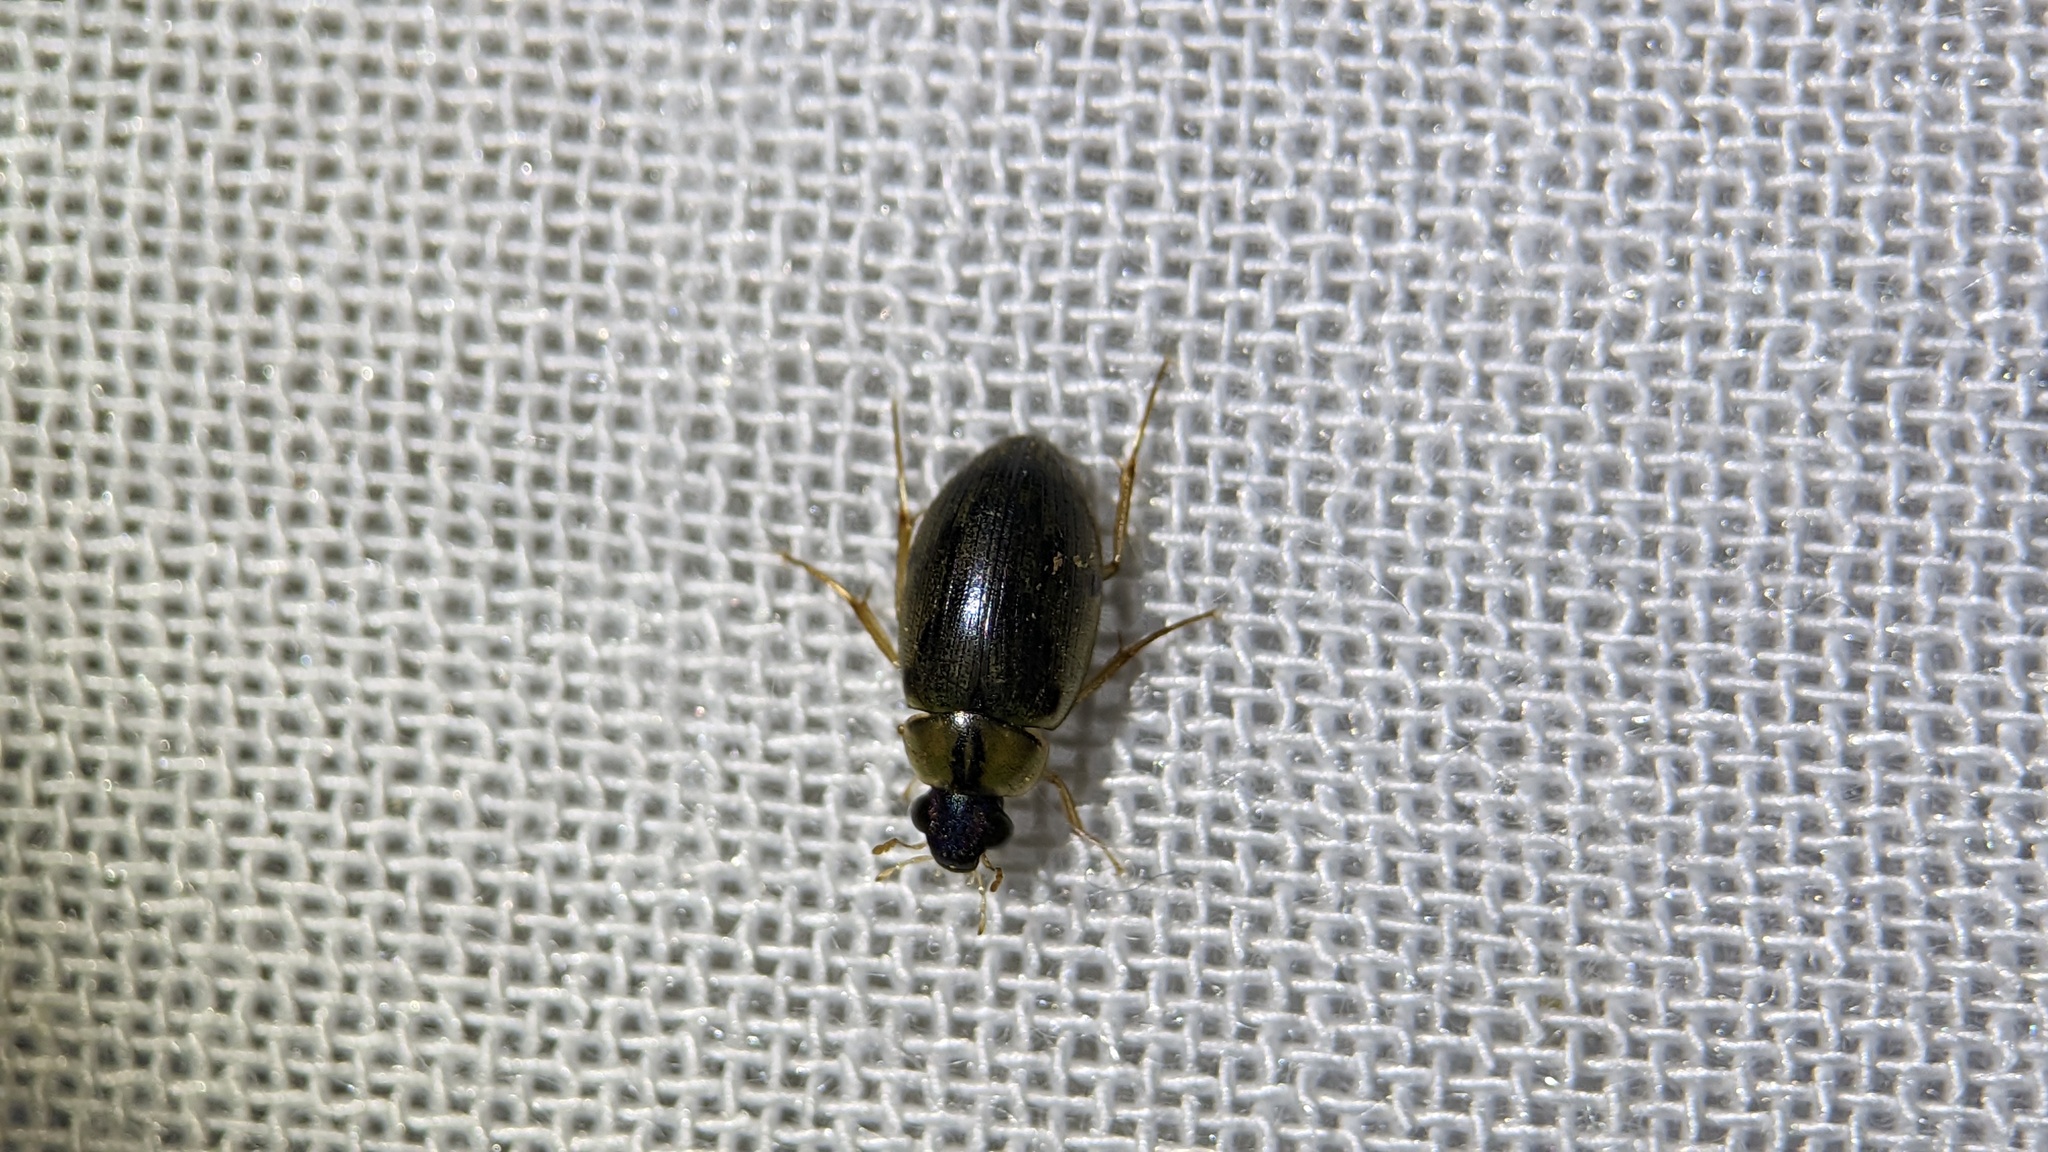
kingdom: Animalia
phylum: Arthropoda
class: Insecta
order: Coleoptera
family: Hydrophilidae
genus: Berosus
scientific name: Berosus
